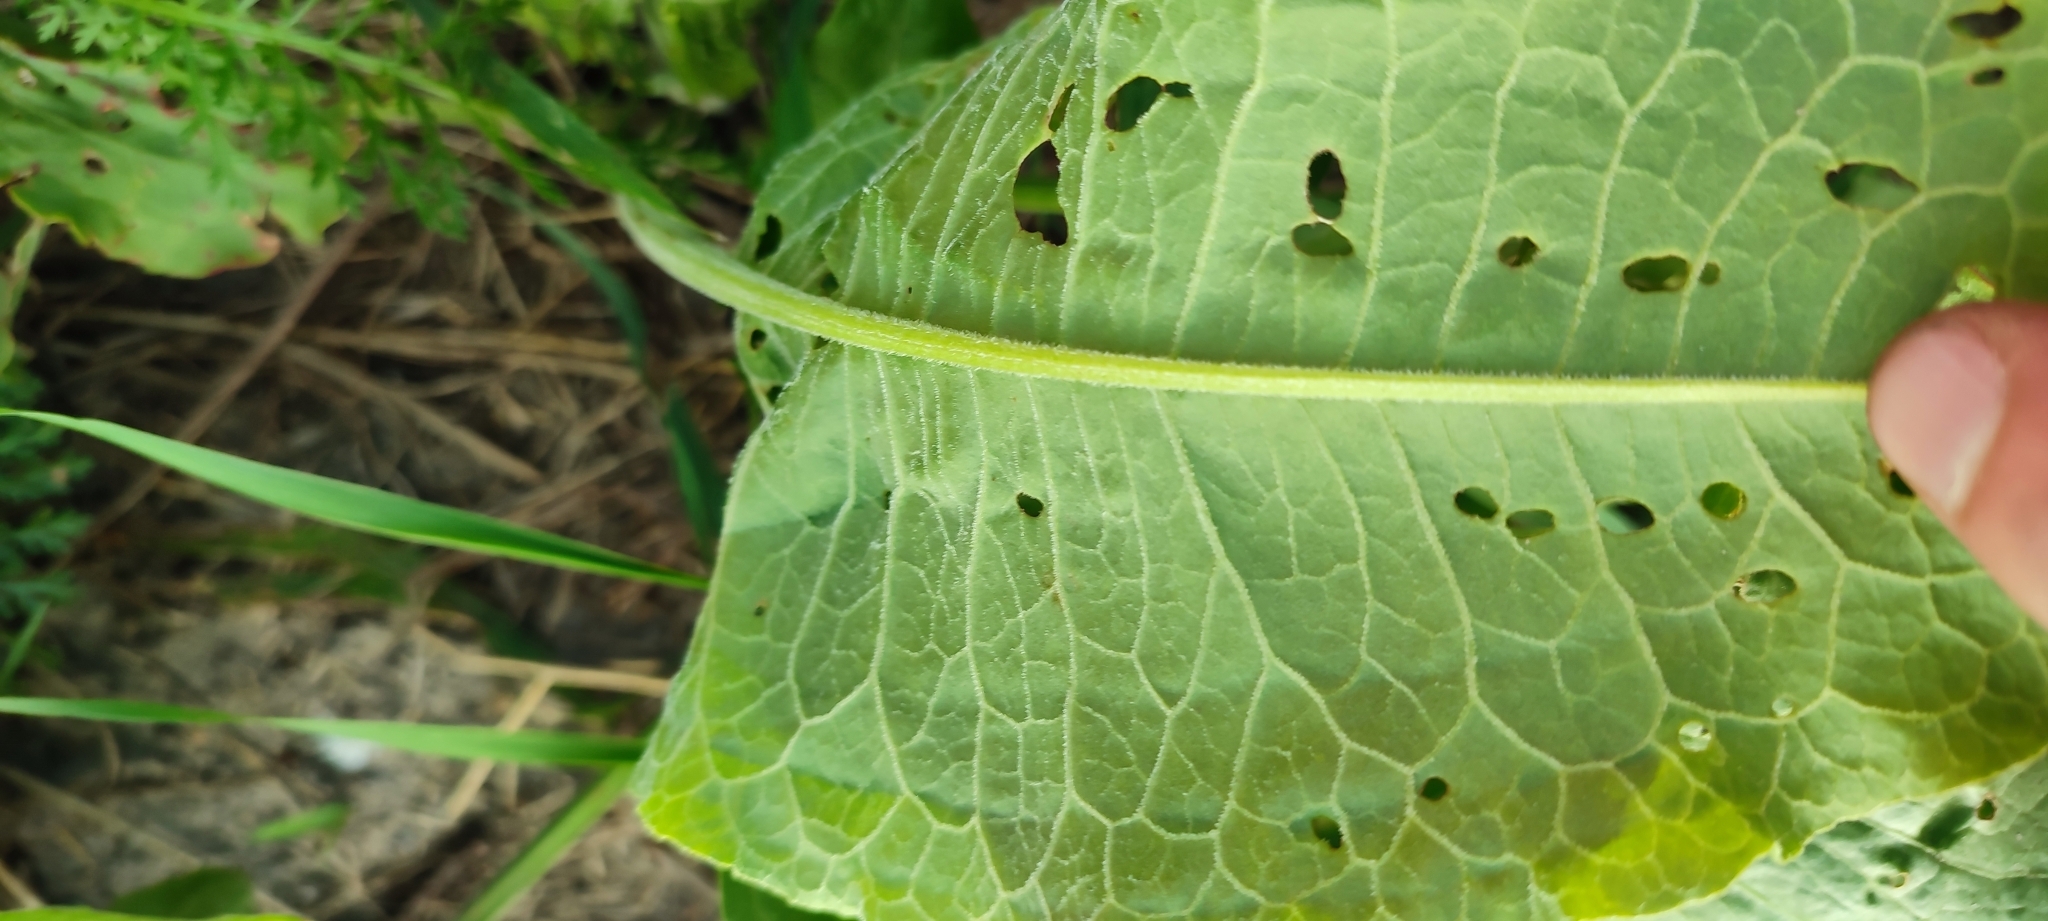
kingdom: Plantae
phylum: Tracheophyta
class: Magnoliopsida
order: Caryophyllales
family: Polygonaceae
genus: Rumex
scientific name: Rumex confertus
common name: Russian dock
